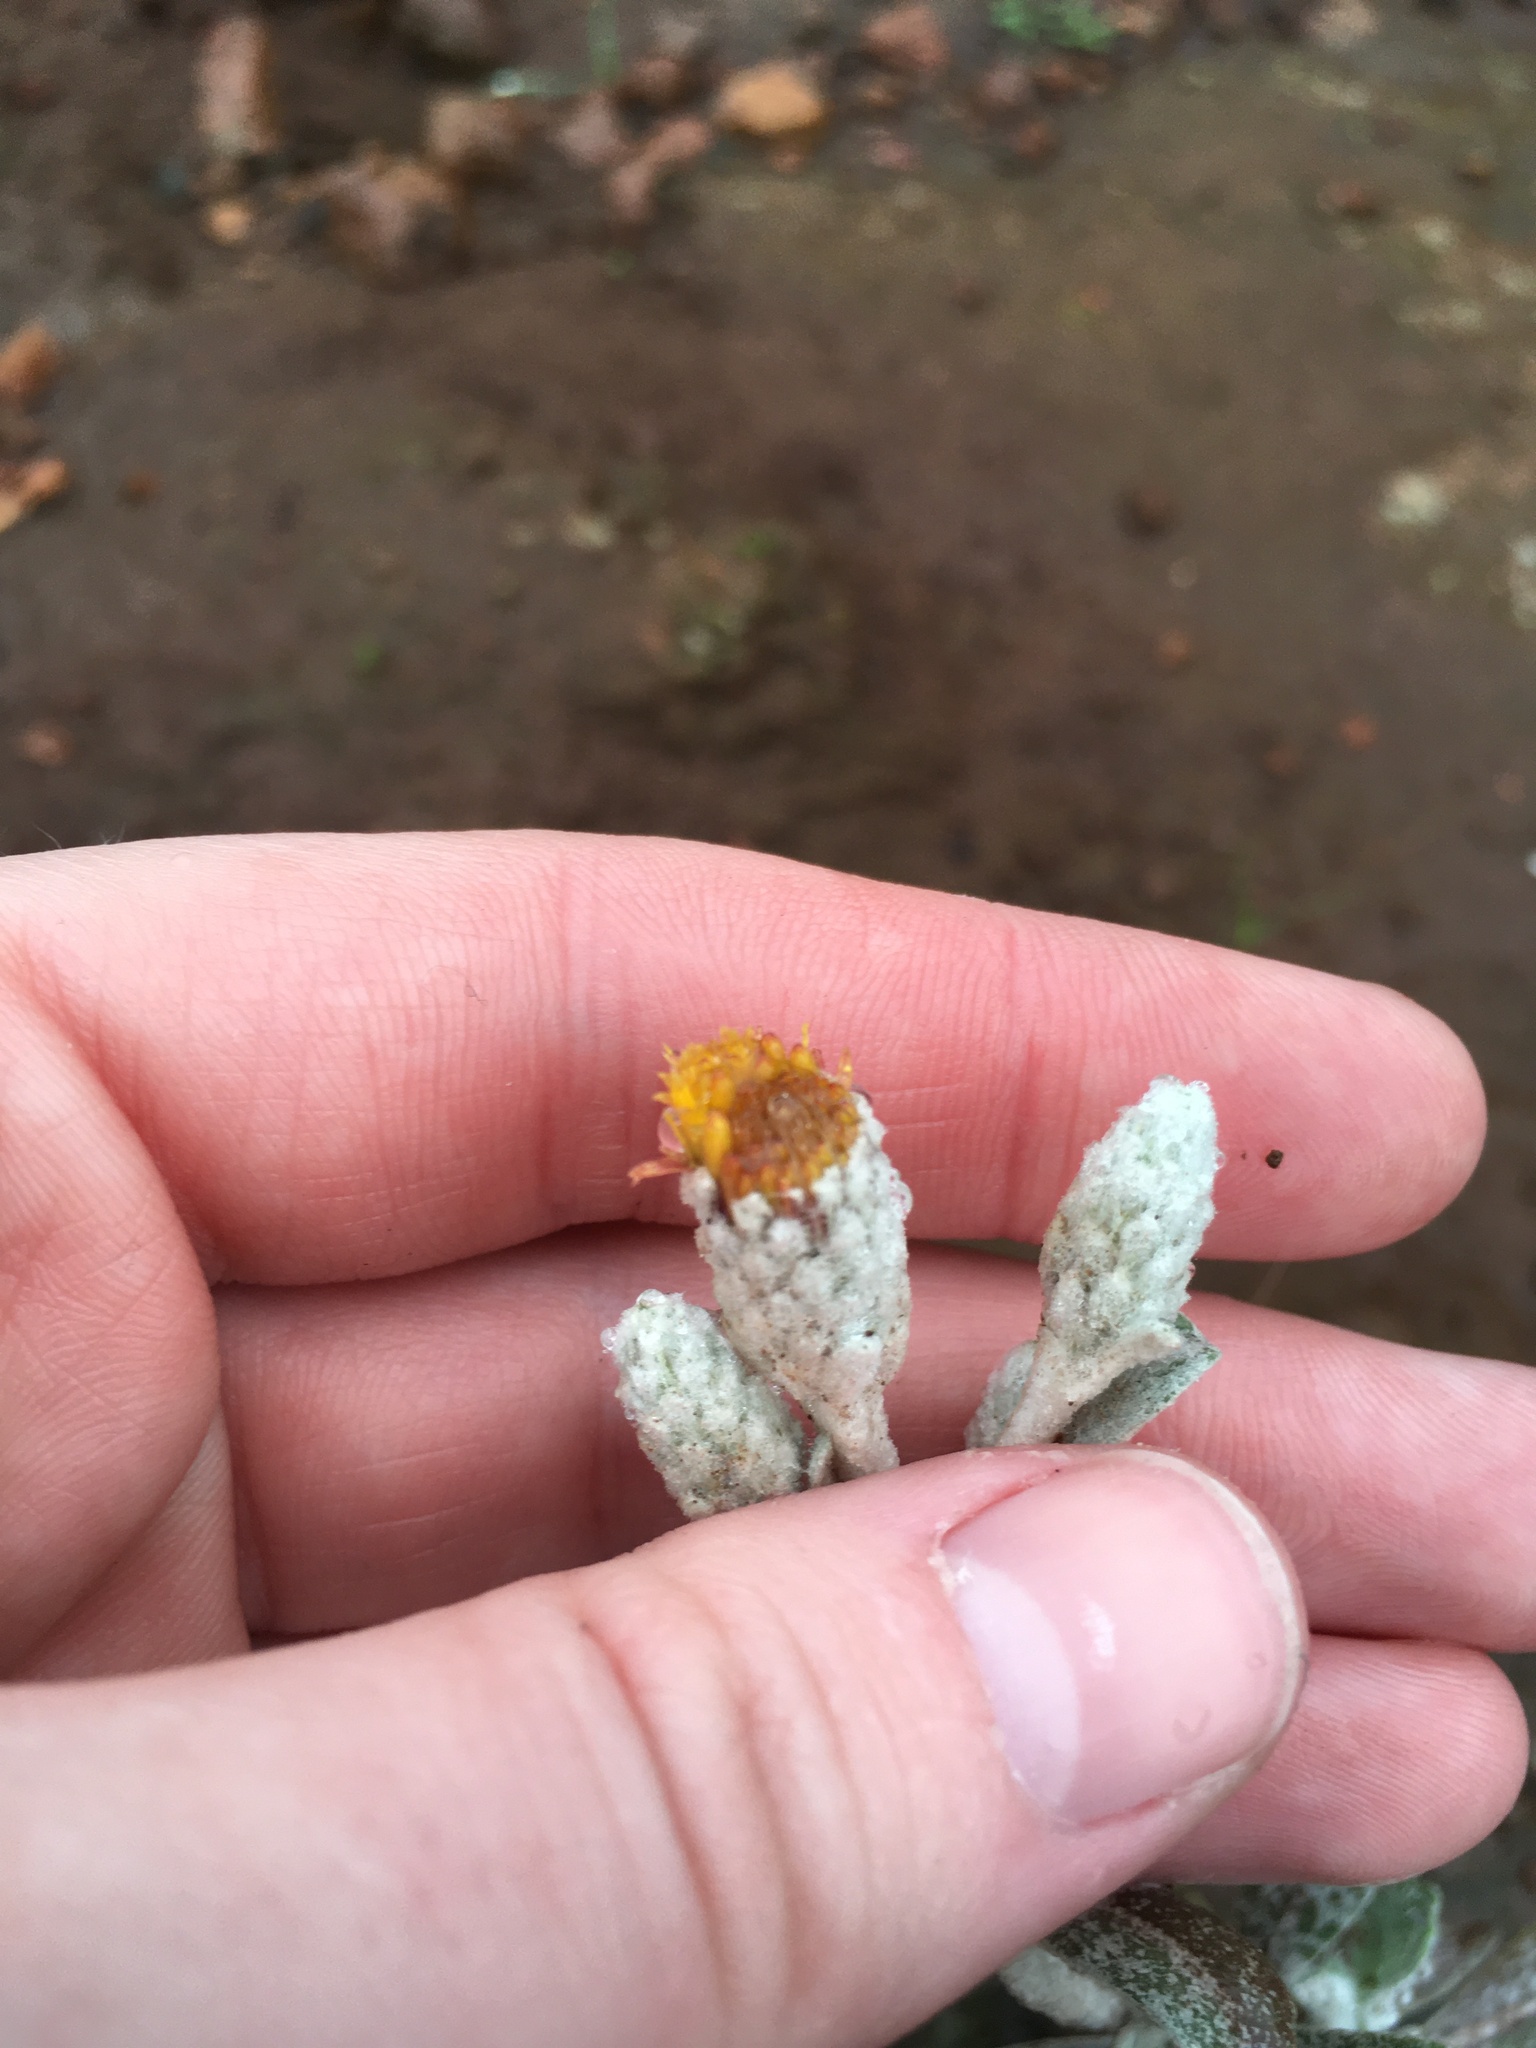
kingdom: Plantae
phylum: Tracheophyta
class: Magnoliopsida
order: Asterales
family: Asteraceae
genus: Hazardia
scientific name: Hazardia detonsa
